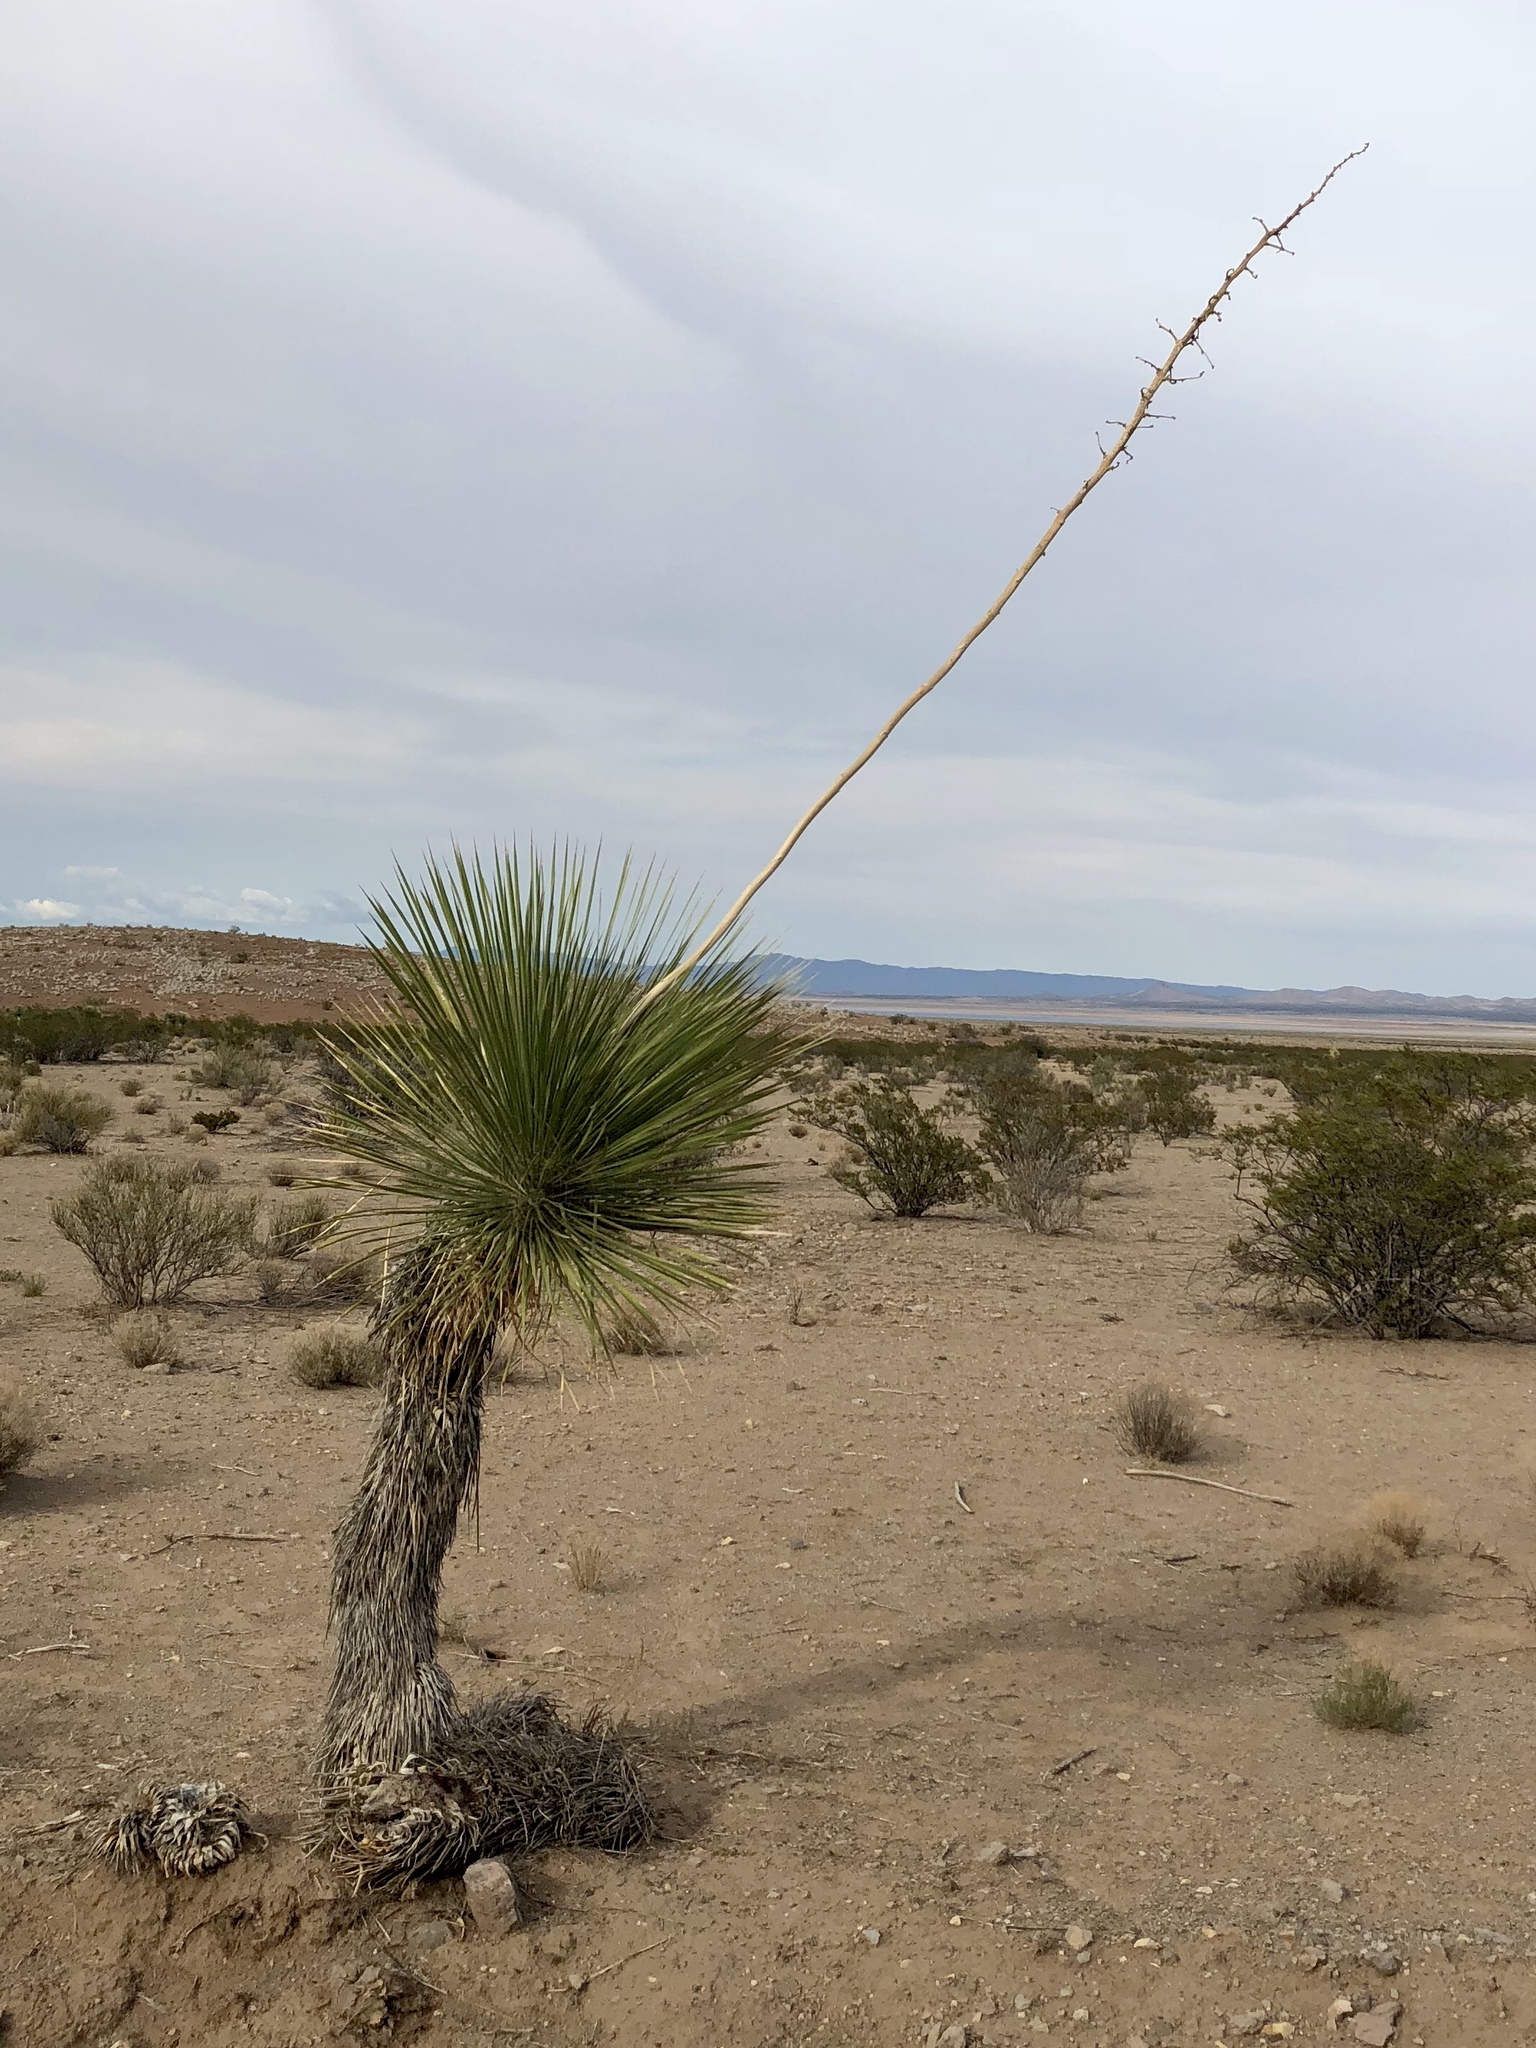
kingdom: Plantae
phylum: Tracheophyta
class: Liliopsida
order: Asparagales
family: Asparagaceae
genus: Yucca
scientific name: Yucca elata
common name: Palmella
